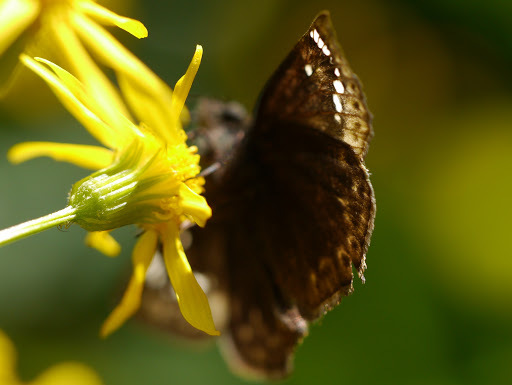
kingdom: Animalia
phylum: Arthropoda
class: Insecta
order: Lepidoptera
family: Hesperiidae
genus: Erynnis
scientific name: Erynnis horatius
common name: Horace's duskywing
